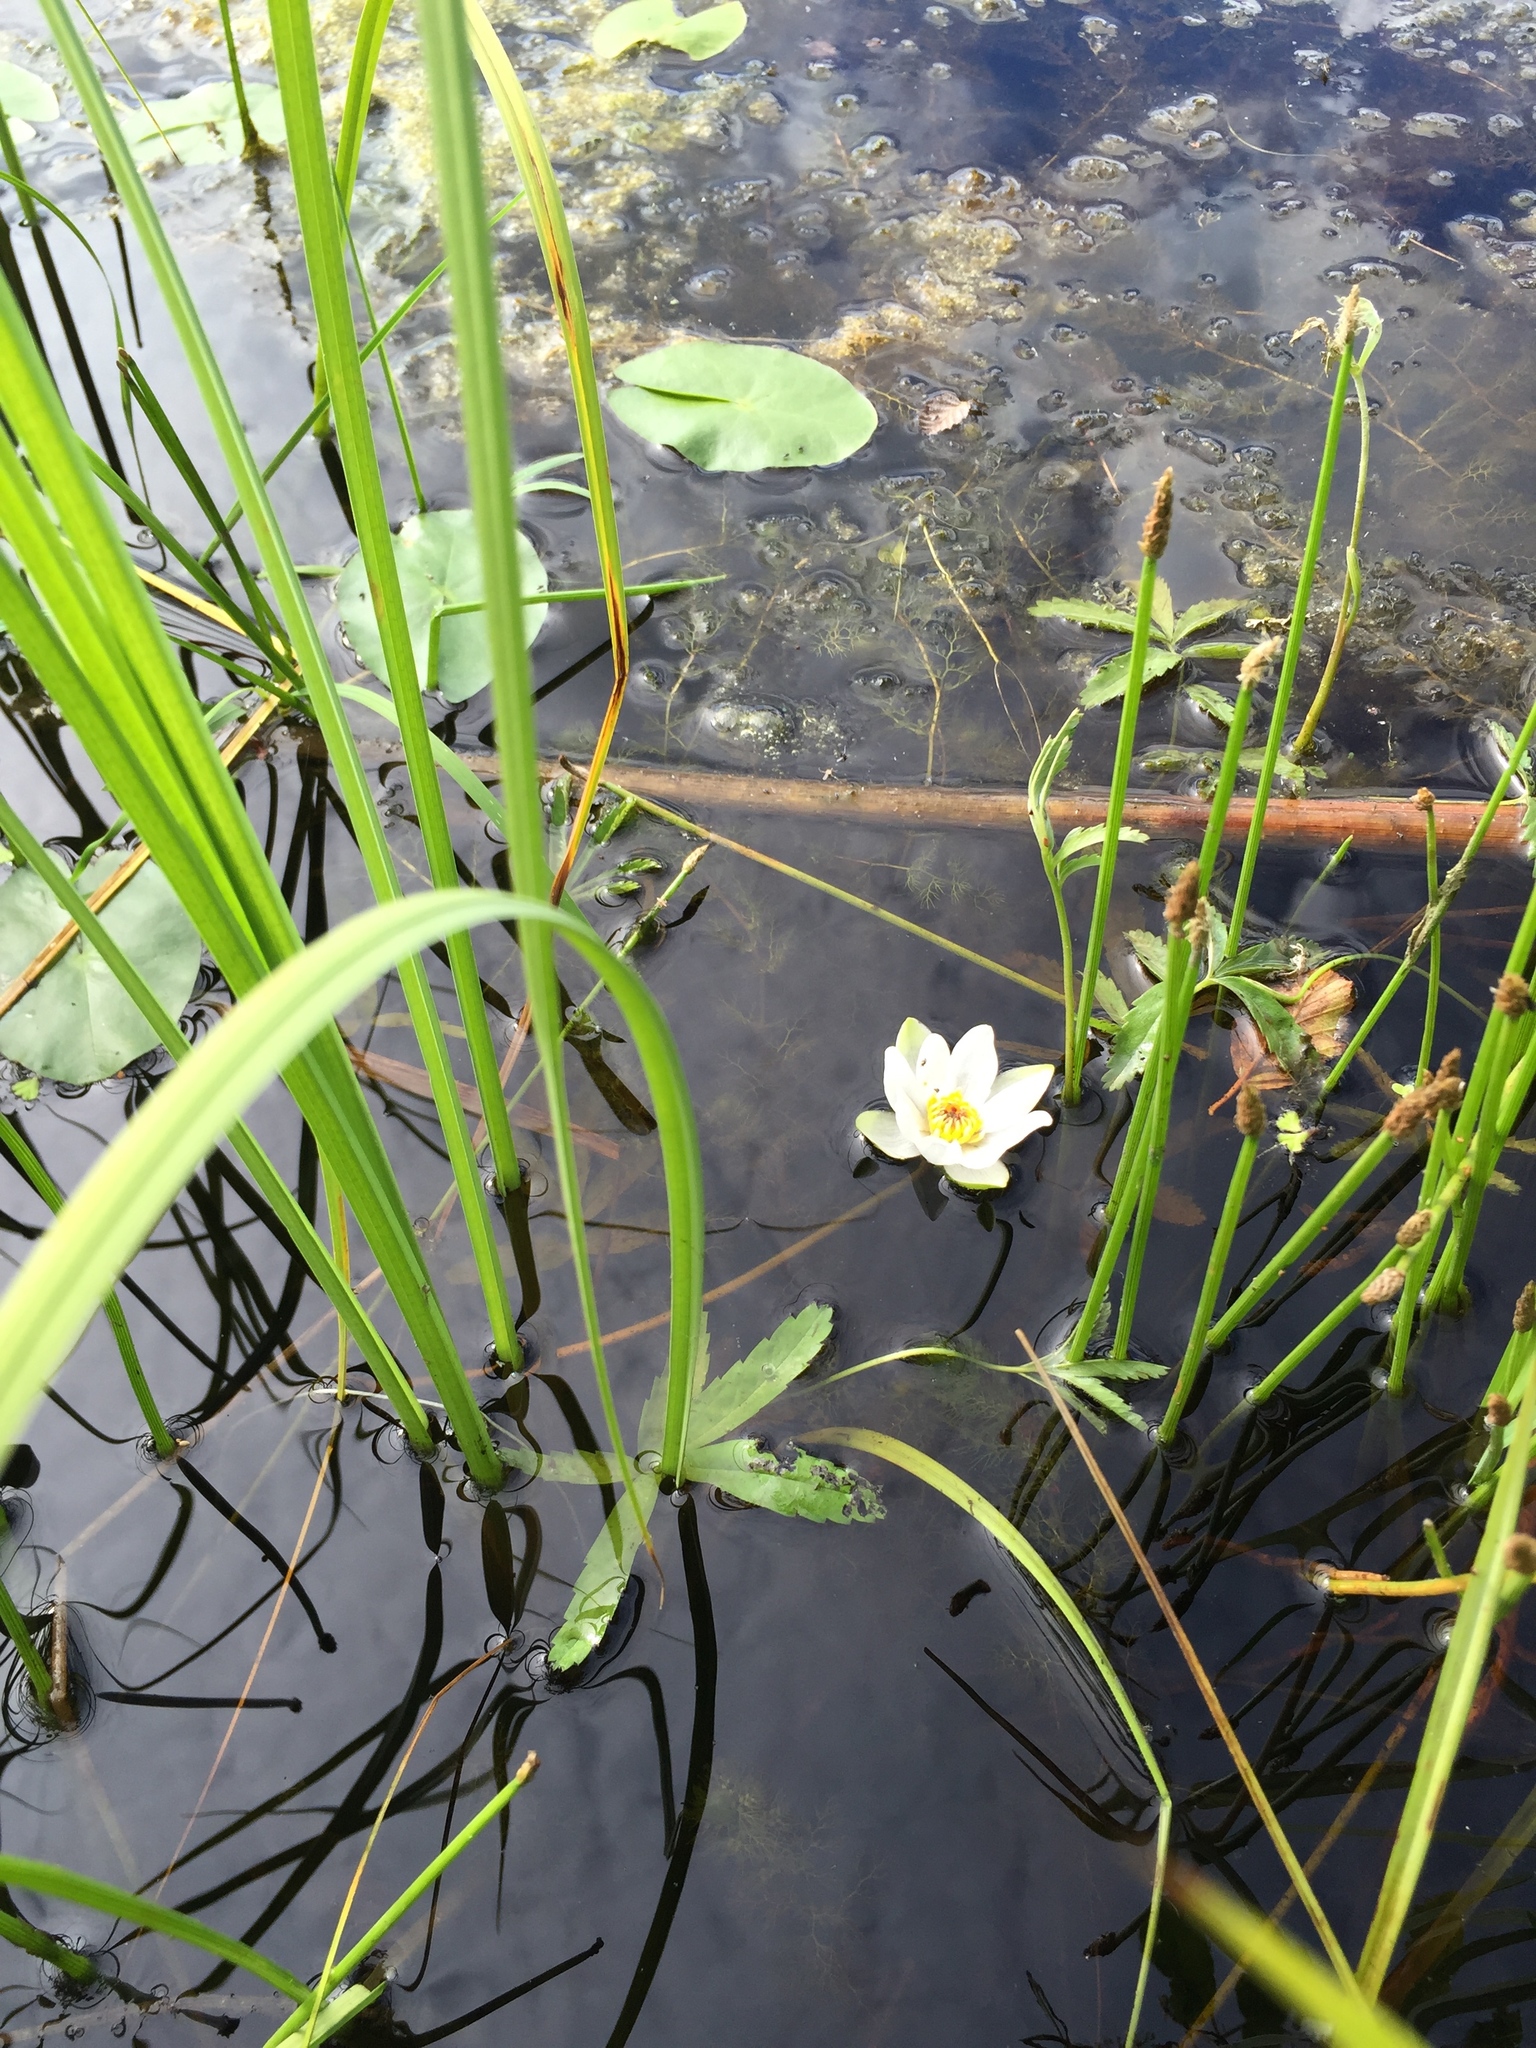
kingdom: Plantae
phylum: Tracheophyta
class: Magnoliopsida
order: Nymphaeales
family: Nymphaeaceae
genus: Nymphaea
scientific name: Nymphaea tetragona
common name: Pygmy water-lily
